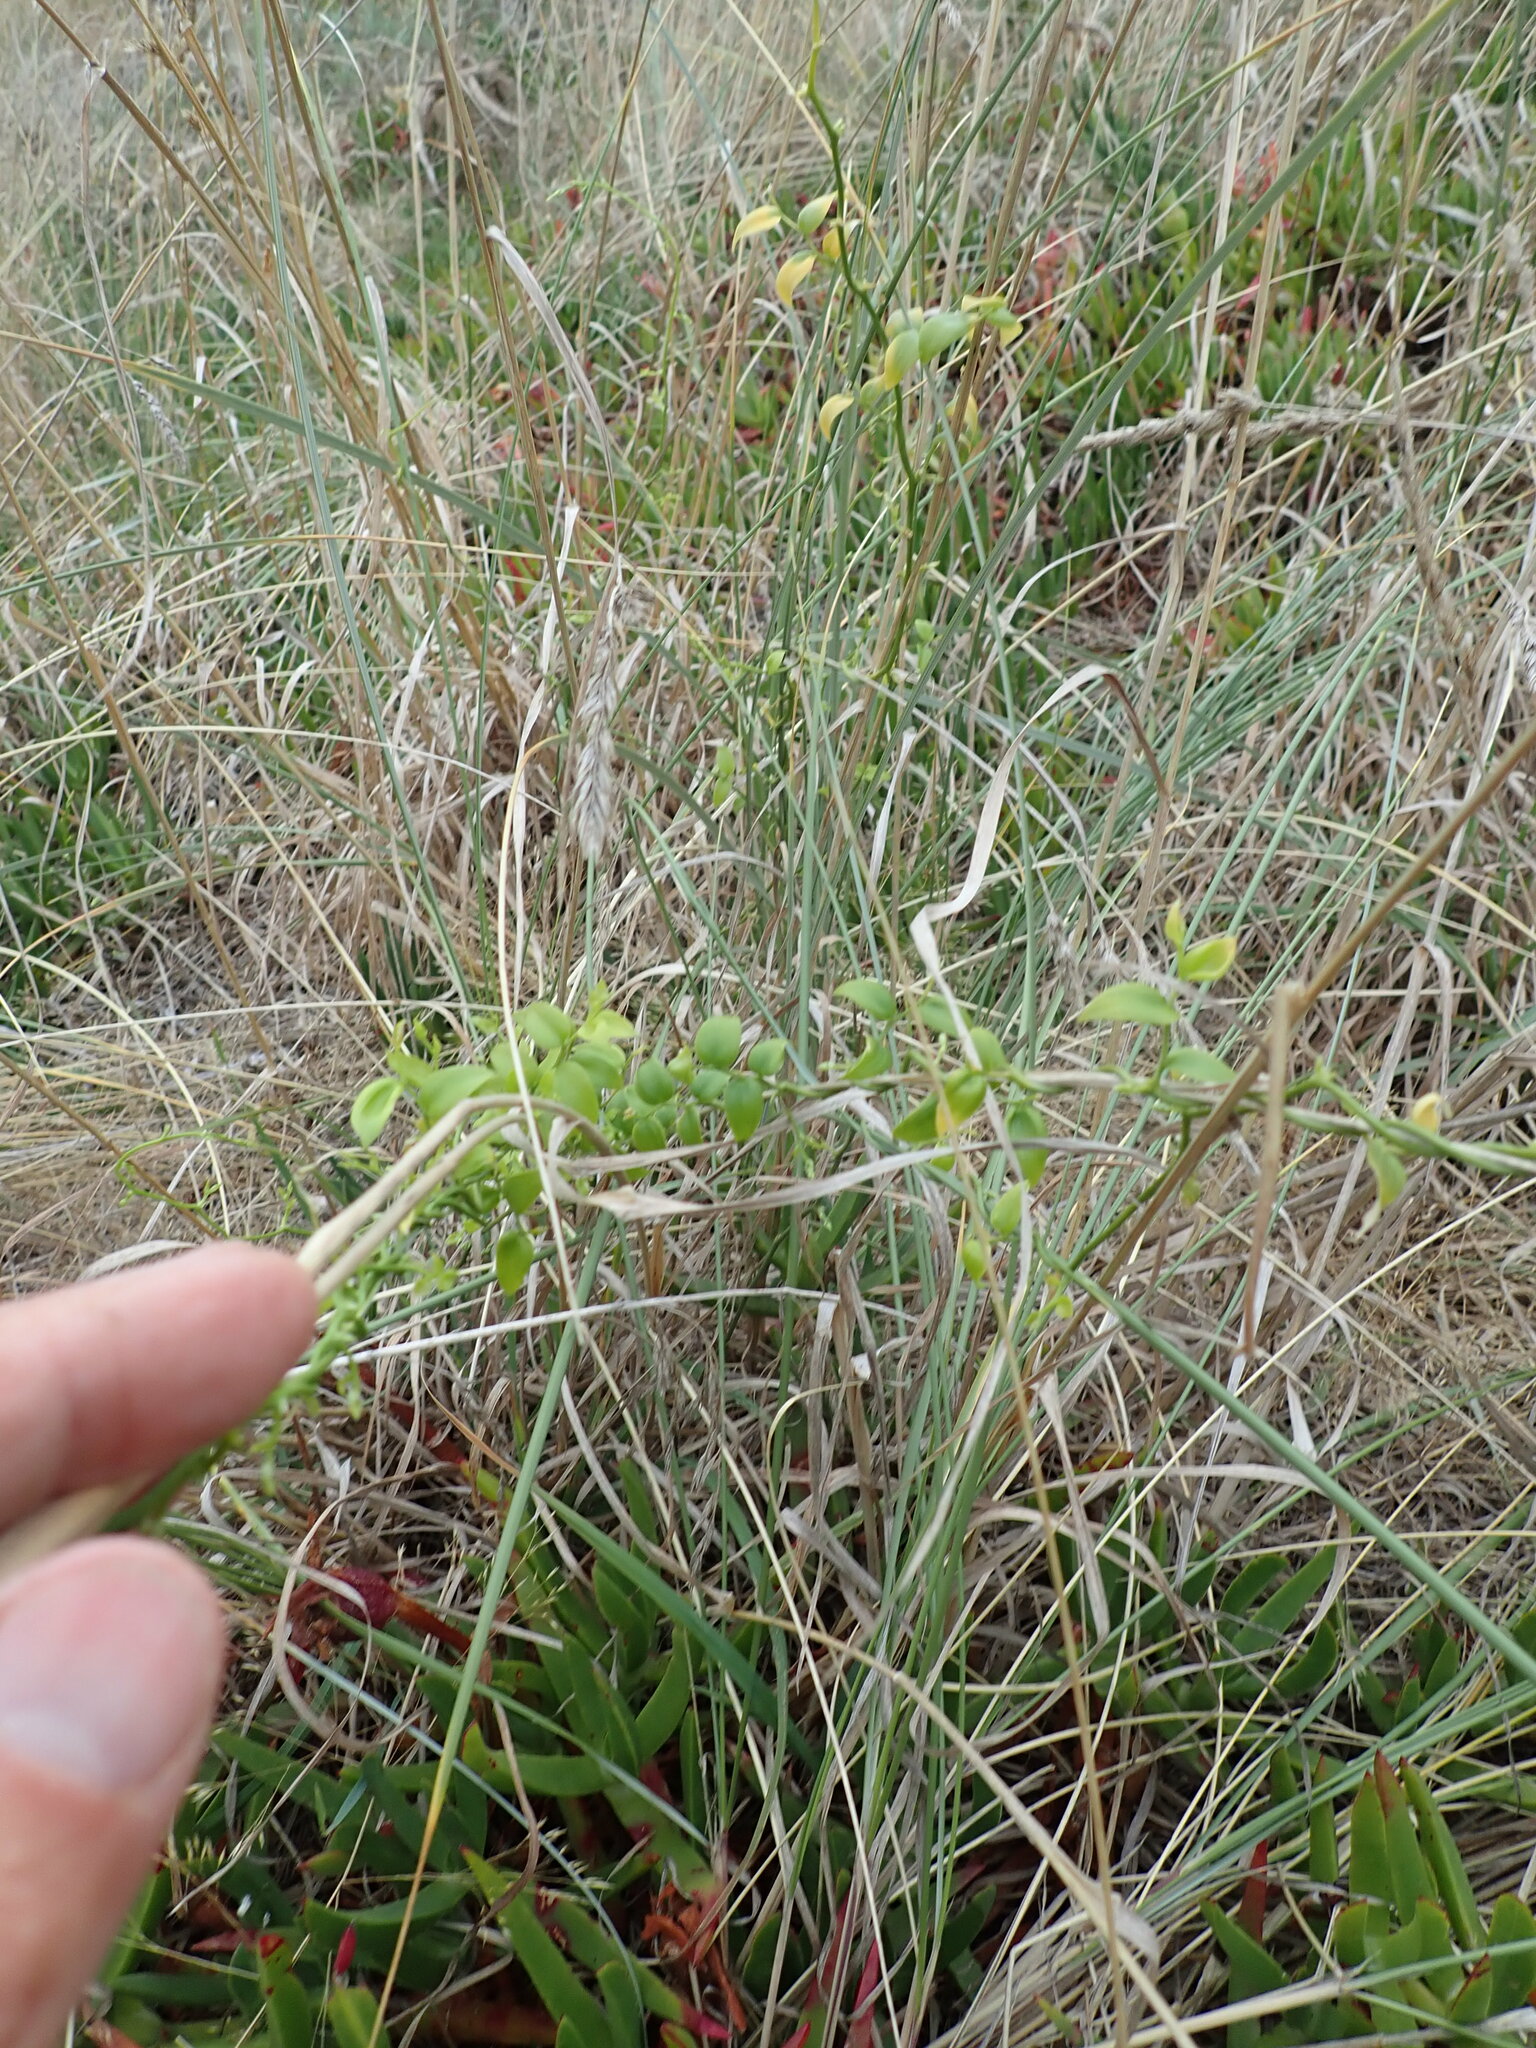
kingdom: Plantae
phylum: Tracheophyta
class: Liliopsida
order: Asparagales
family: Asparagaceae
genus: Asparagus
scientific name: Asparagus asparagoides
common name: African asparagus fern
